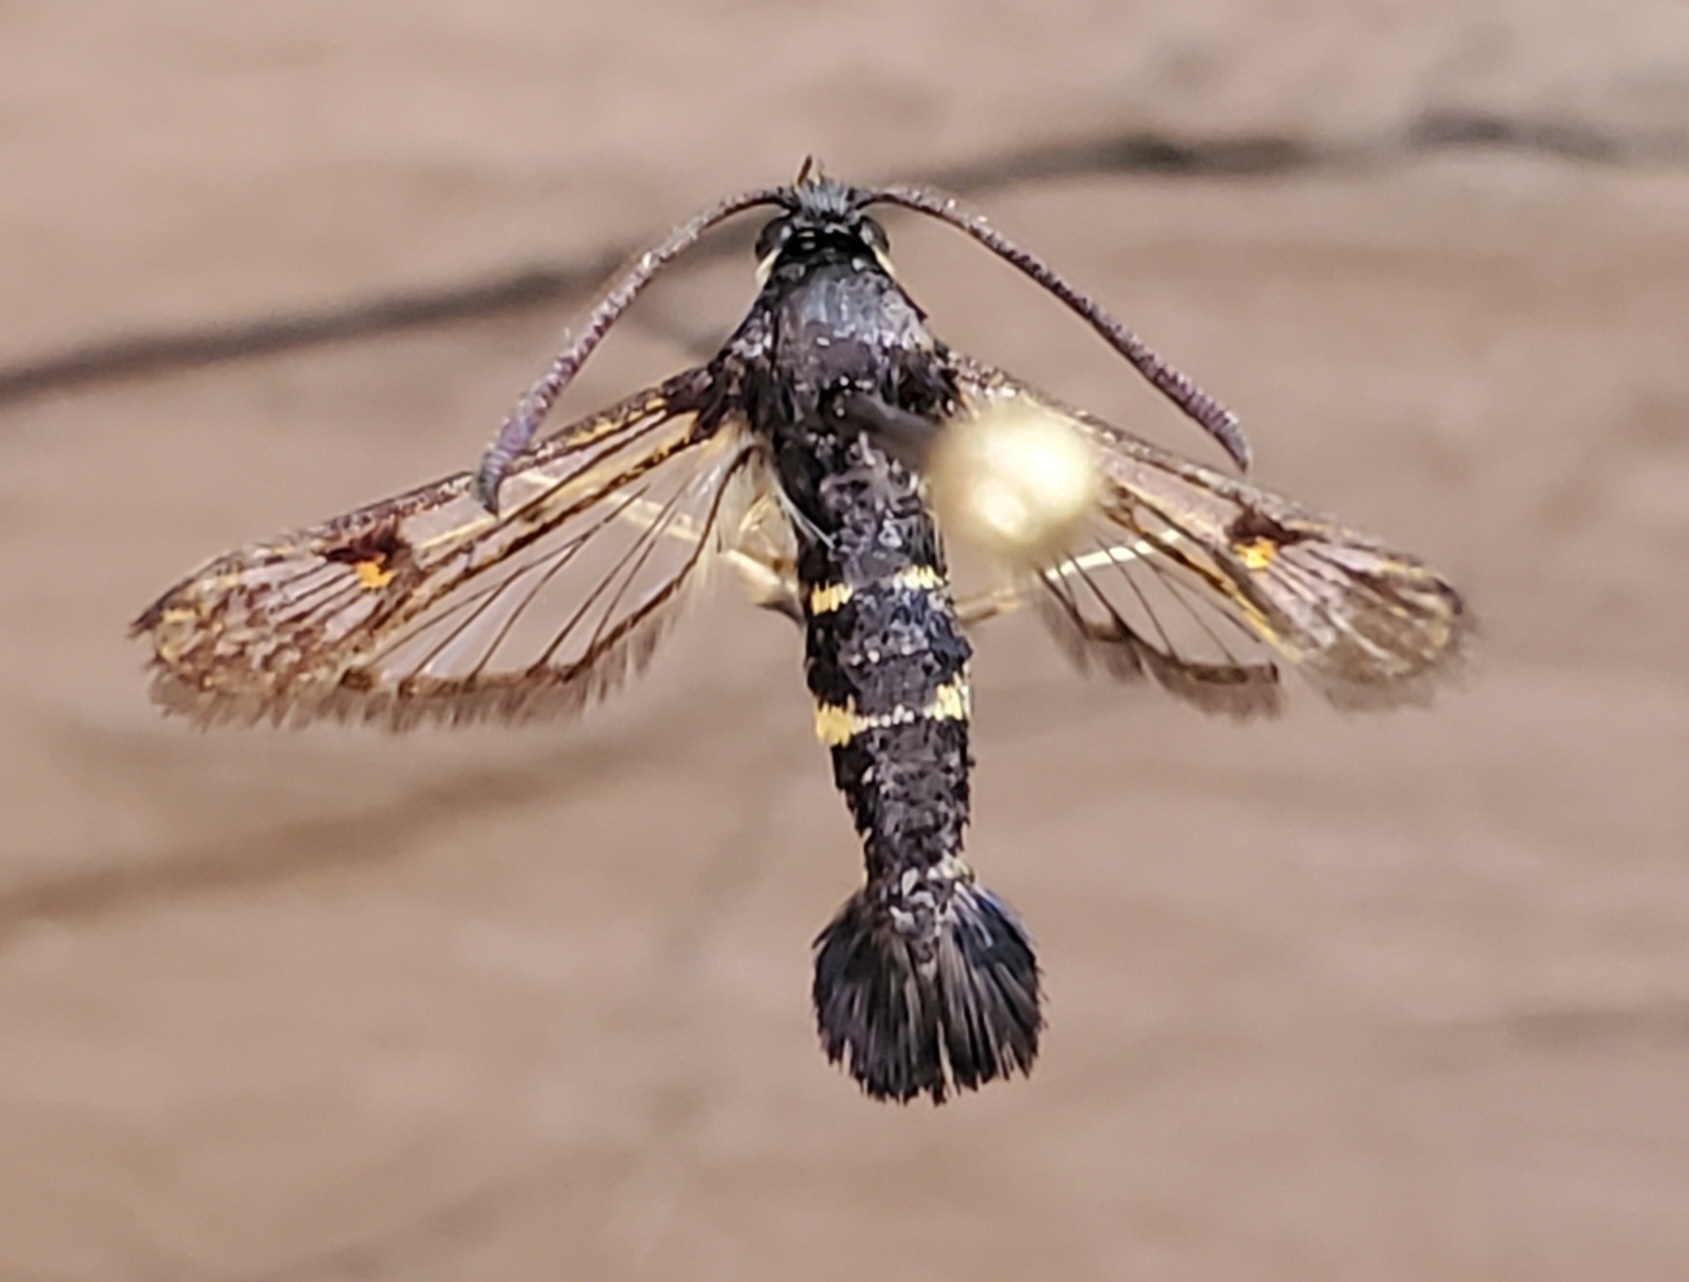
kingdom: Animalia
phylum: Arthropoda
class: Insecta
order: Lepidoptera
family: Sesiidae
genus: Synanthedon
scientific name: Synanthedon helenis
